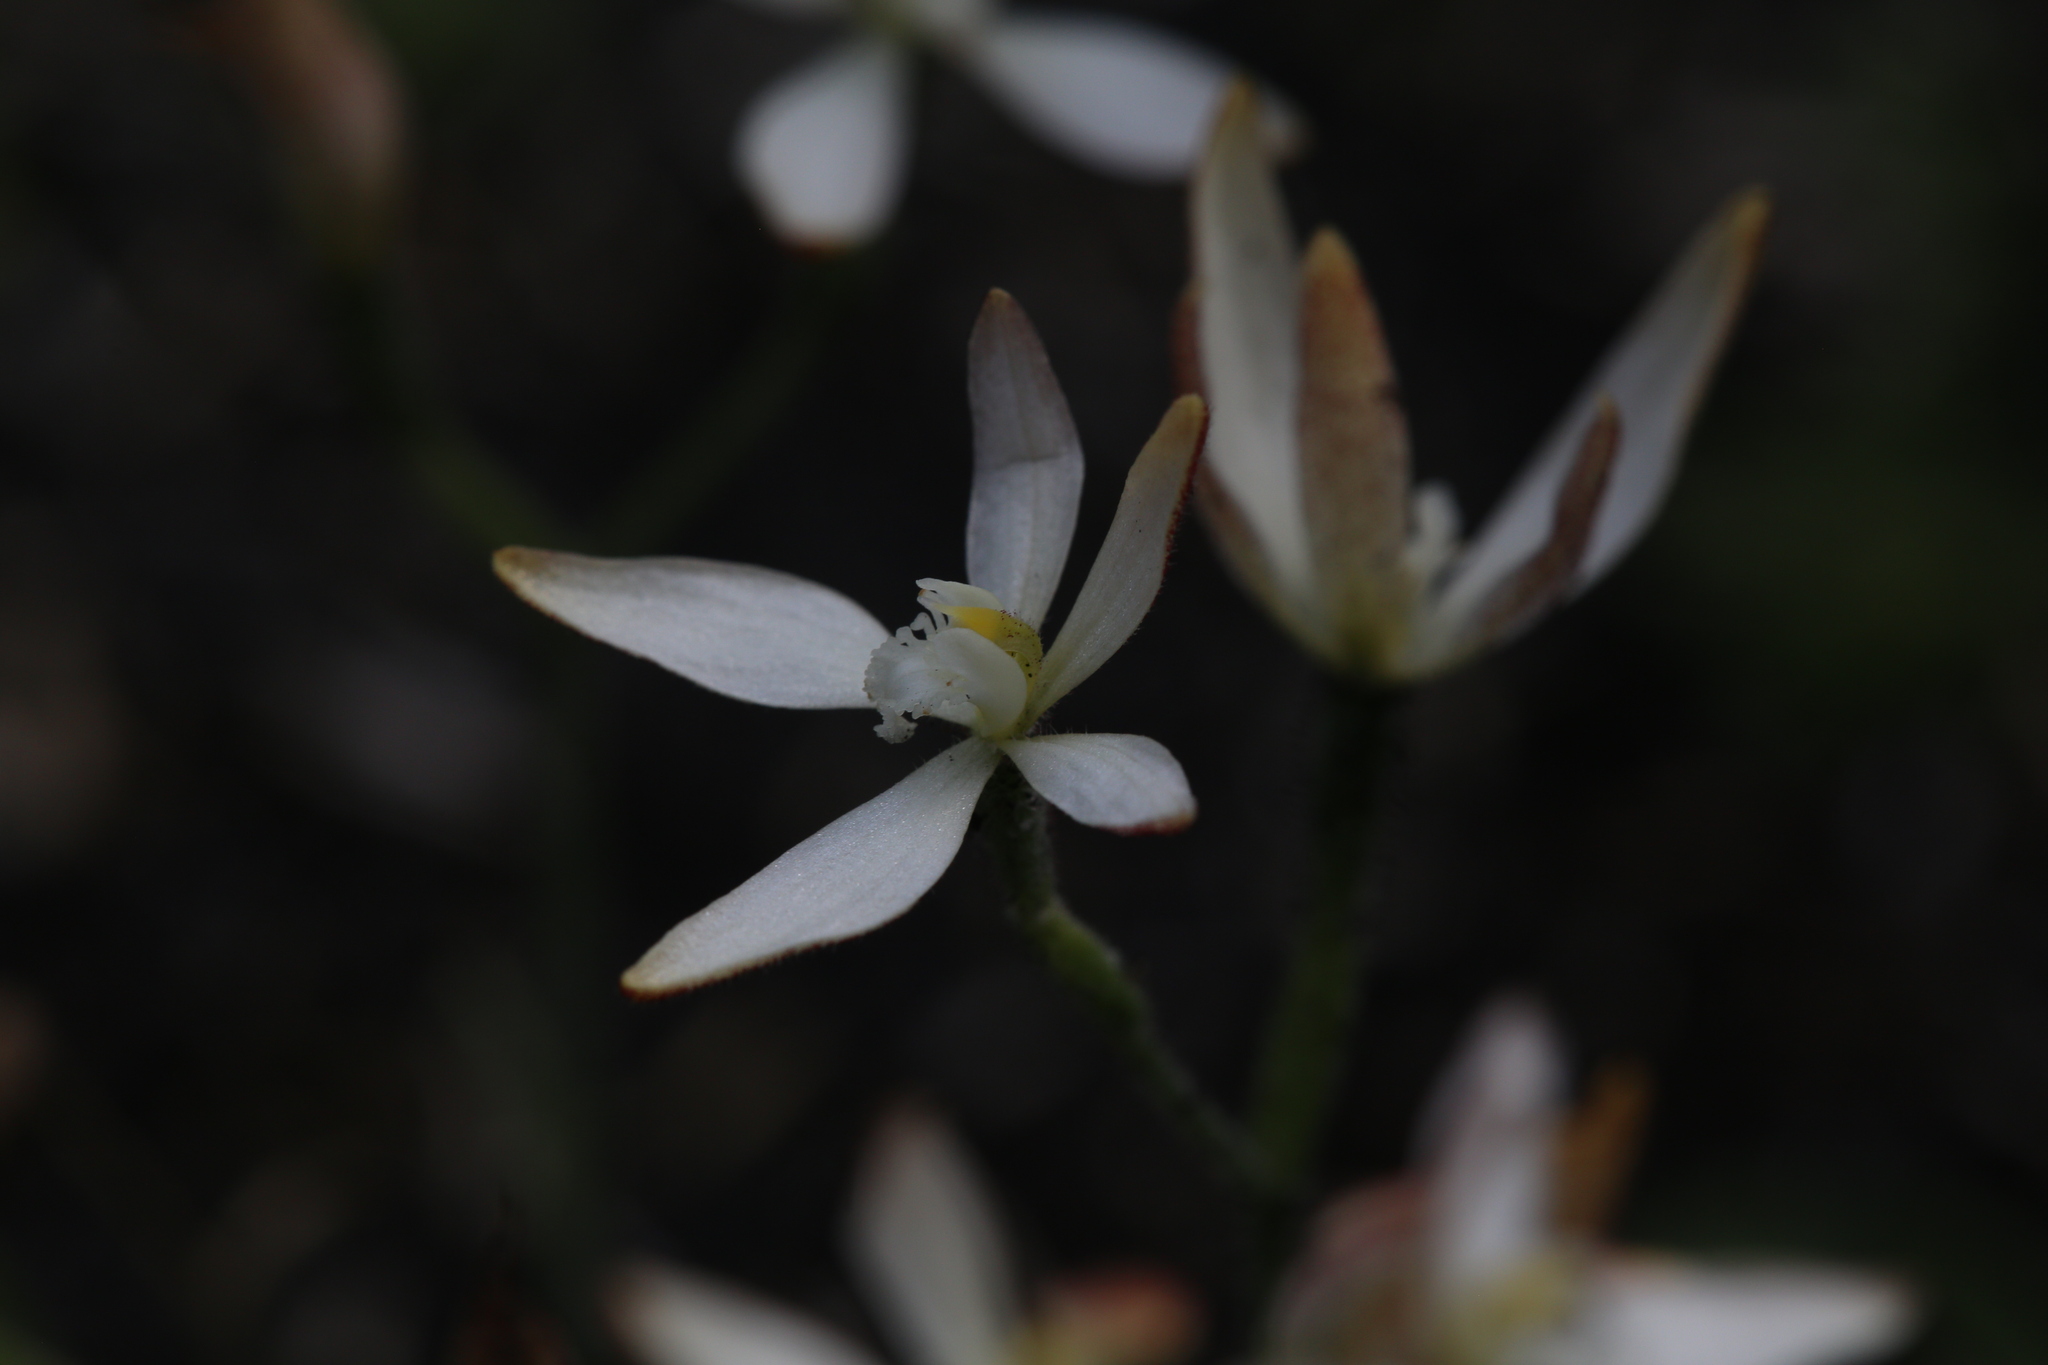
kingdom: Plantae
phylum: Tracheophyta
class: Liliopsida
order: Asparagales
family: Orchidaceae
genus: Caladenia
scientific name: Caladenia marginata
